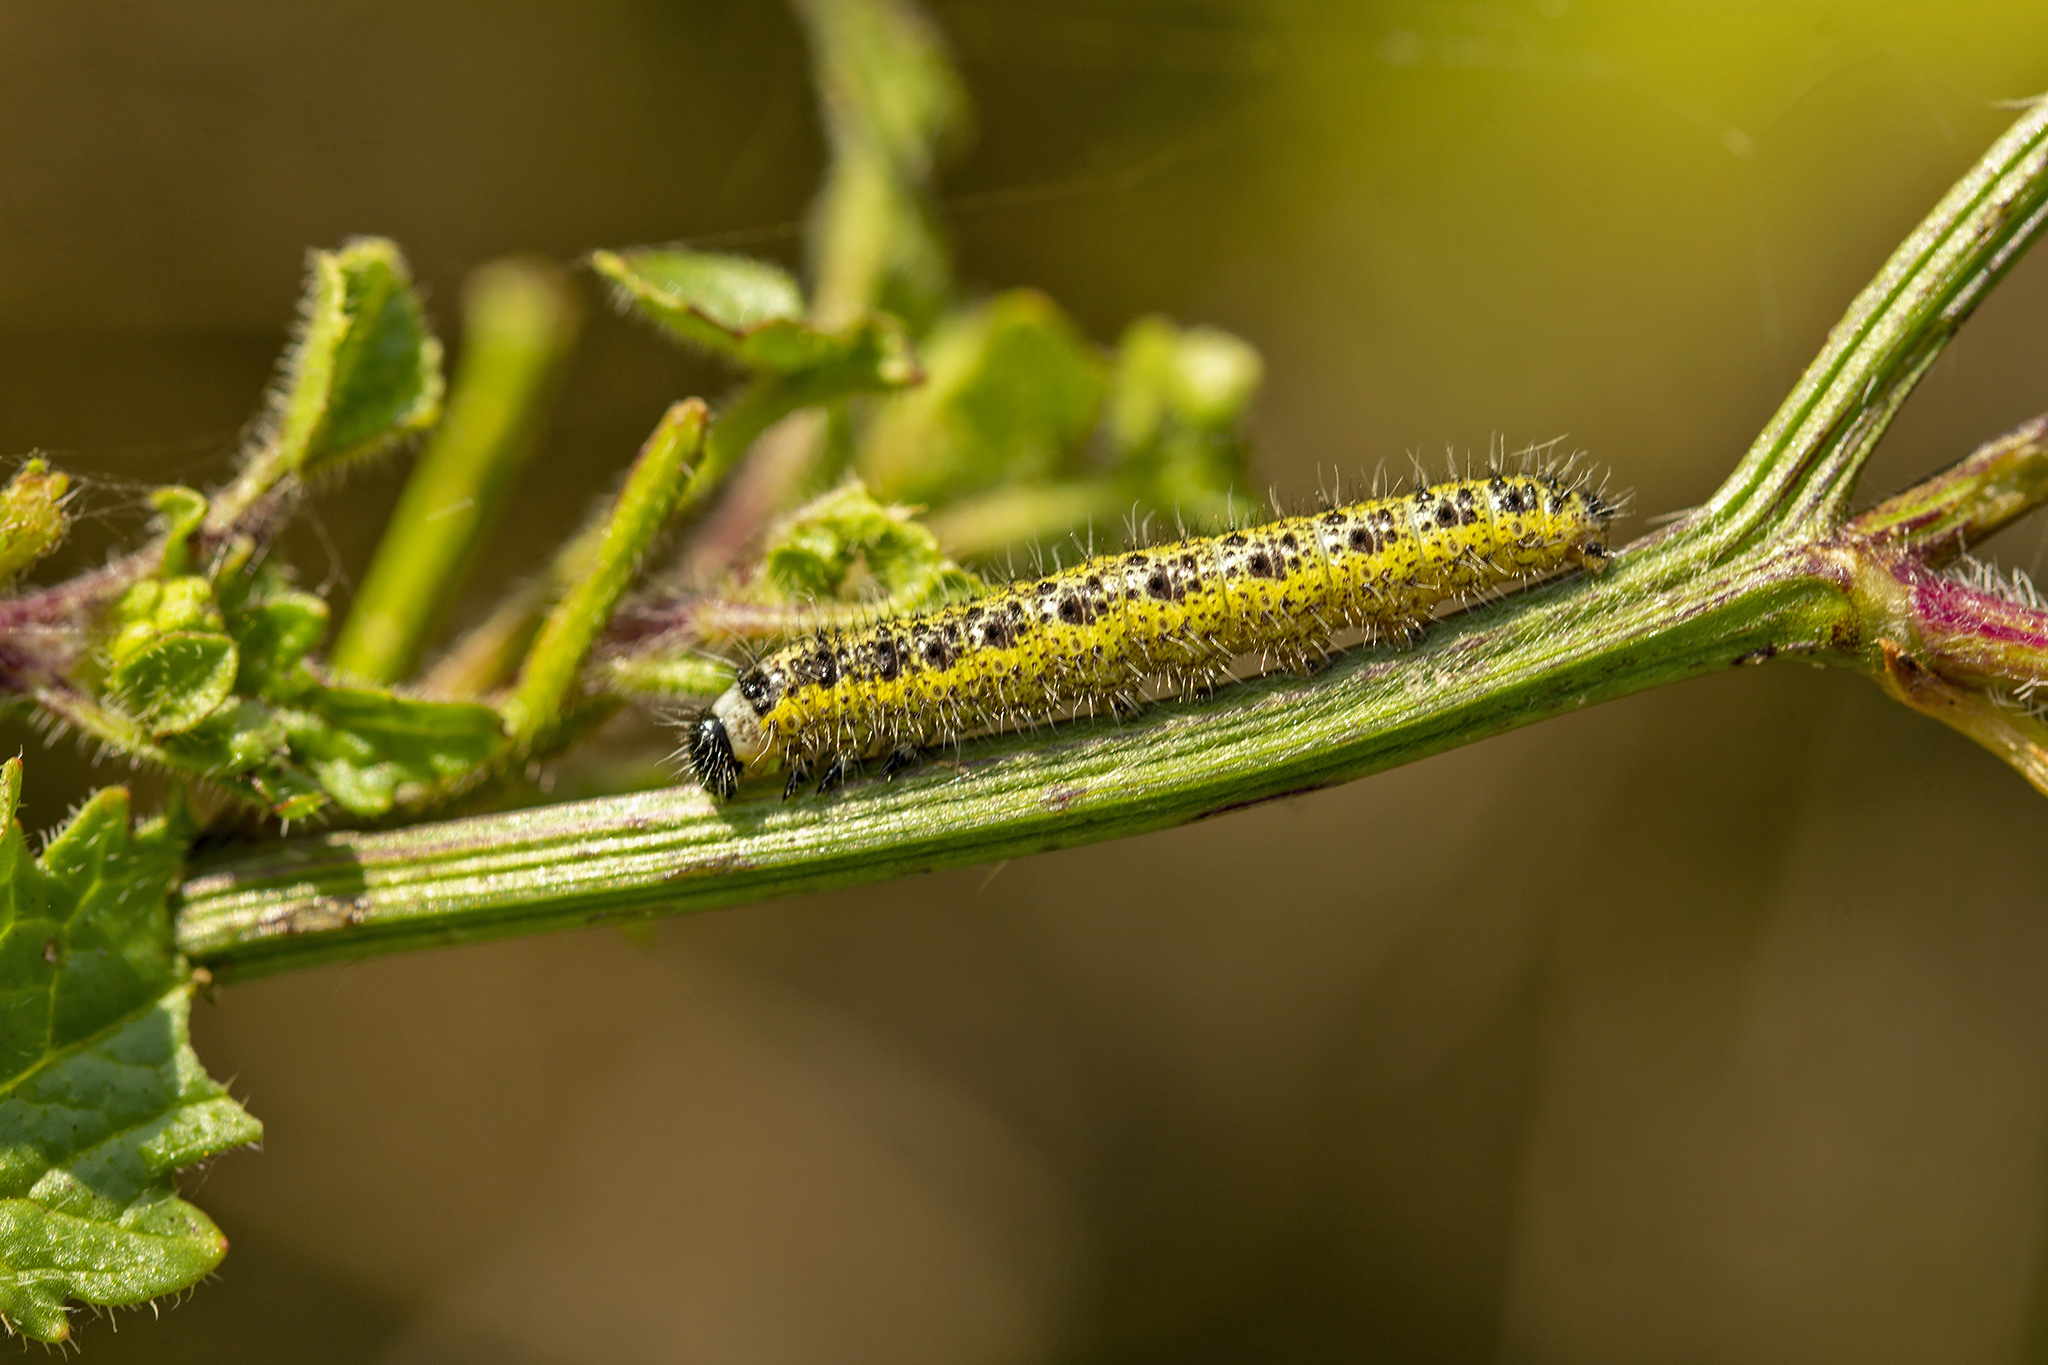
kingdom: Animalia
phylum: Arthropoda
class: Insecta
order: Lepidoptera
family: Pieridae
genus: Pieris
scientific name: Pieris brassicae
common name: Large white
